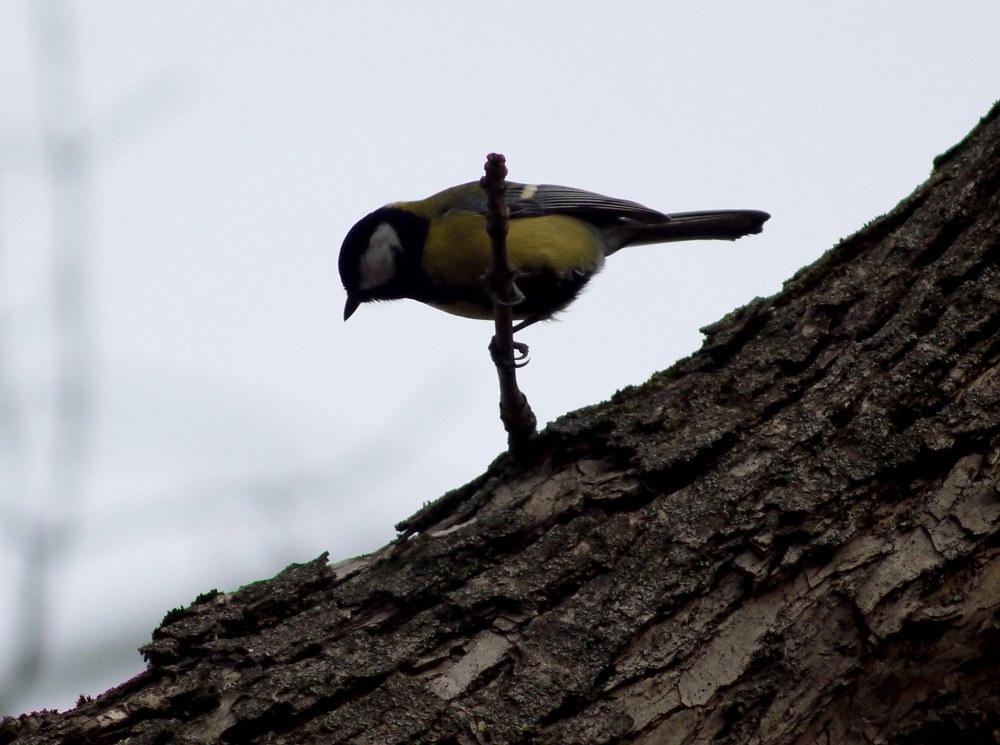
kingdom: Animalia
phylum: Chordata
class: Aves
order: Passeriformes
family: Paridae
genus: Parus
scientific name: Parus major
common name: Great tit
